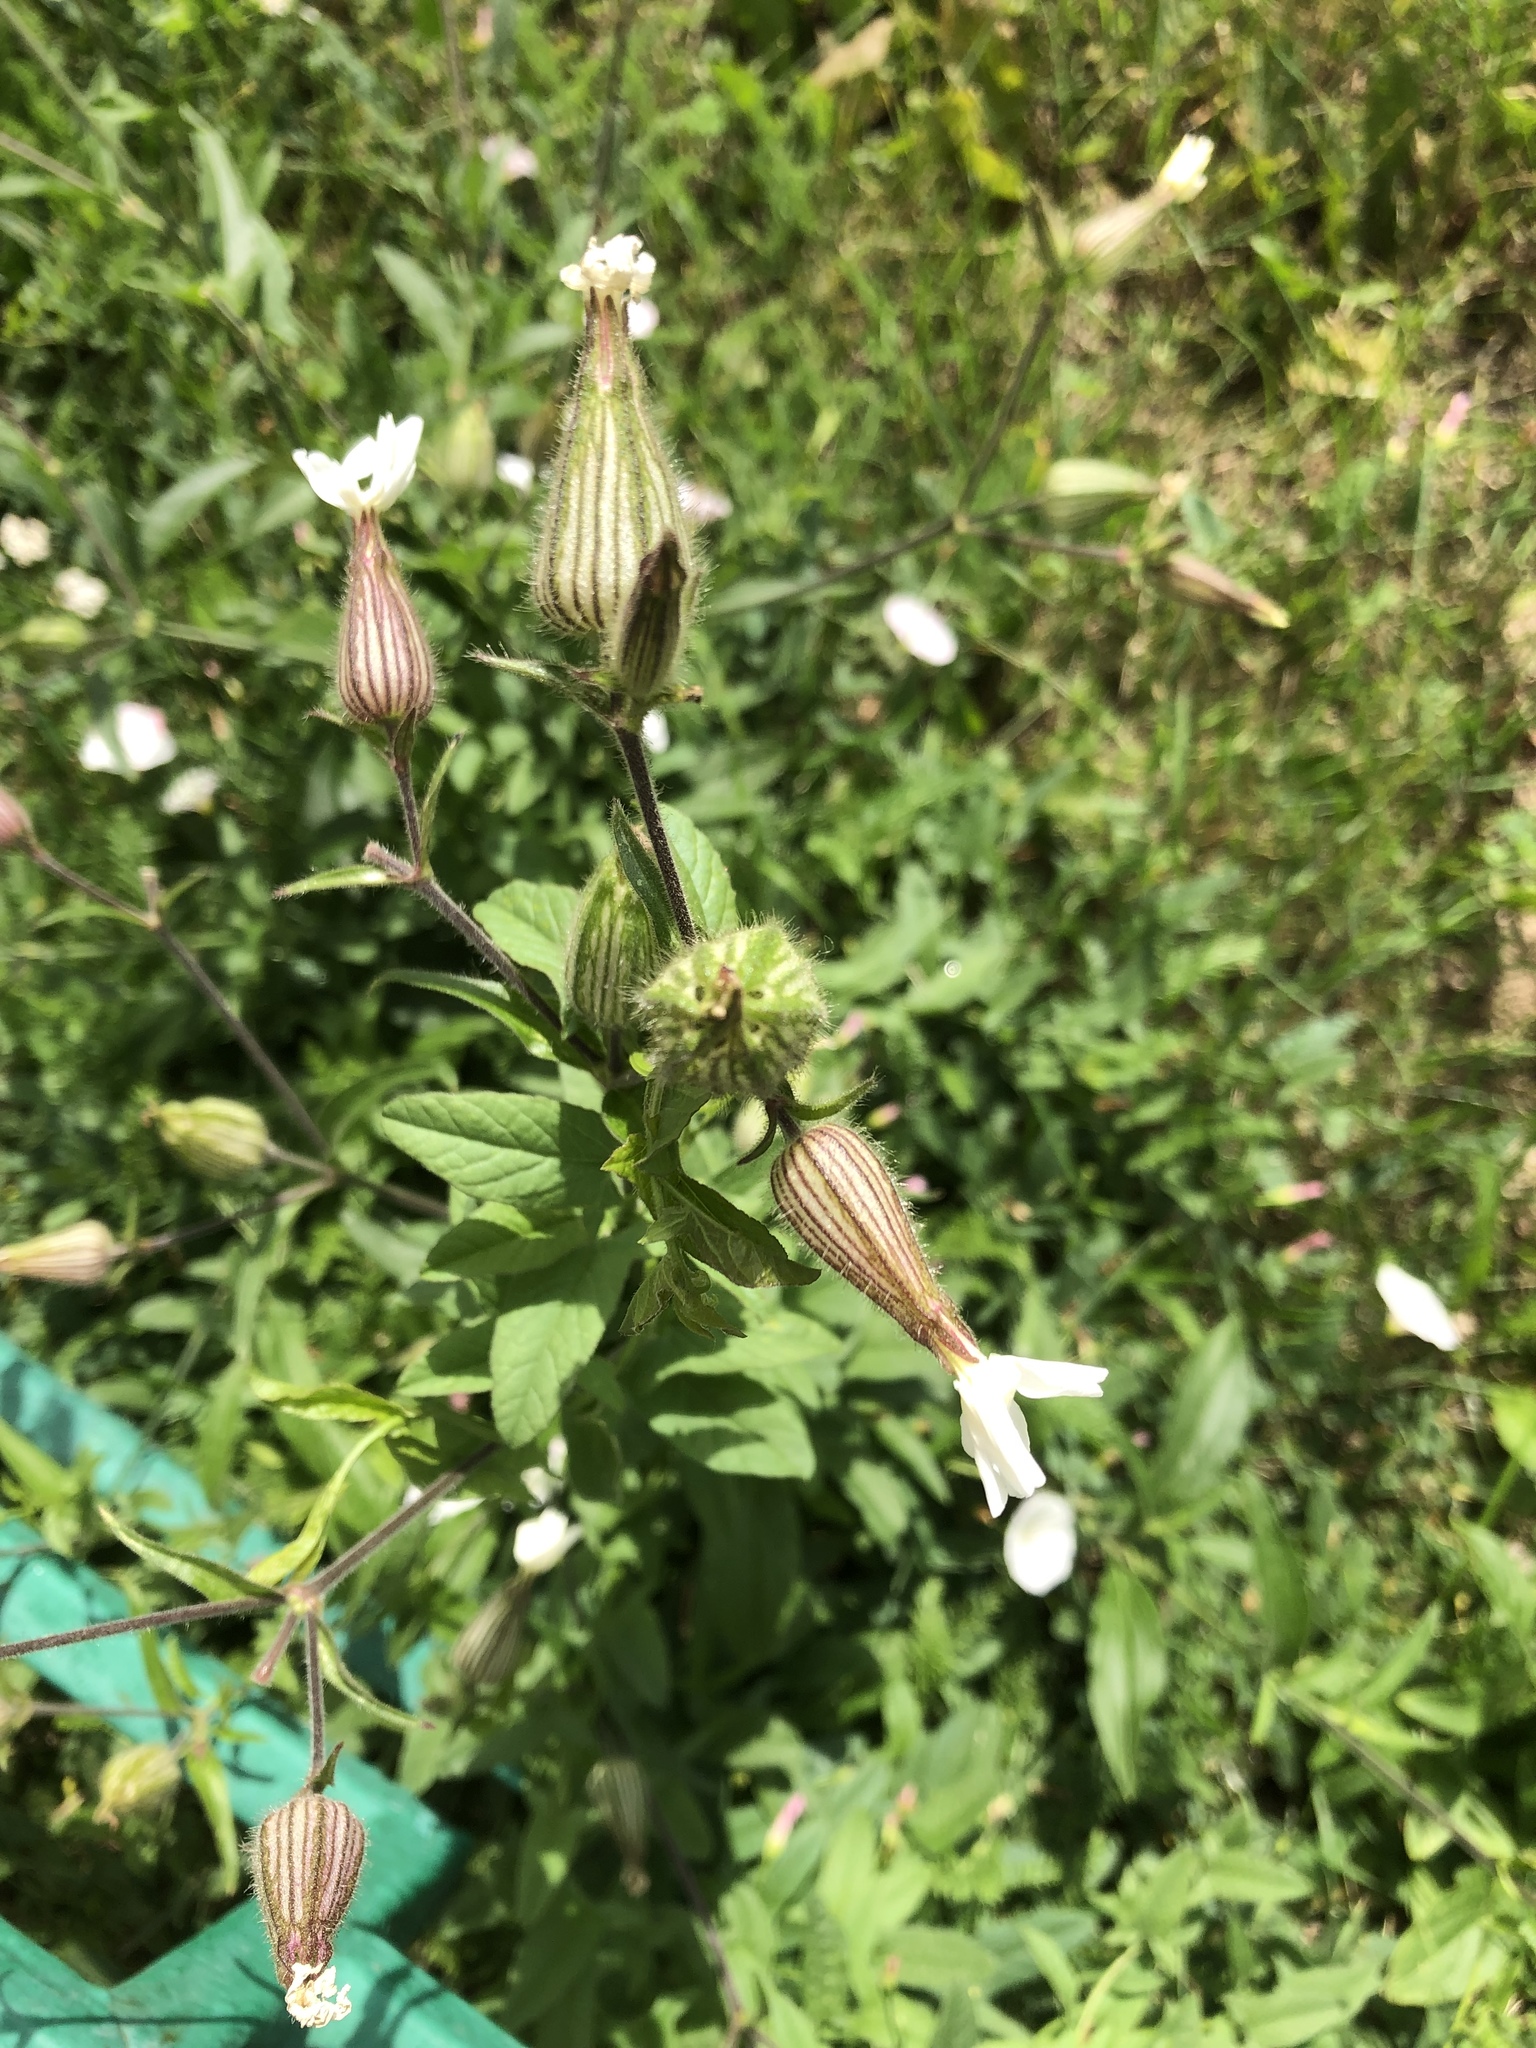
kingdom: Plantae
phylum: Tracheophyta
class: Magnoliopsida
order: Caryophyllales
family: Caryophyllaceae
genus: Silene
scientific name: Silene latifolia
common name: White campion
